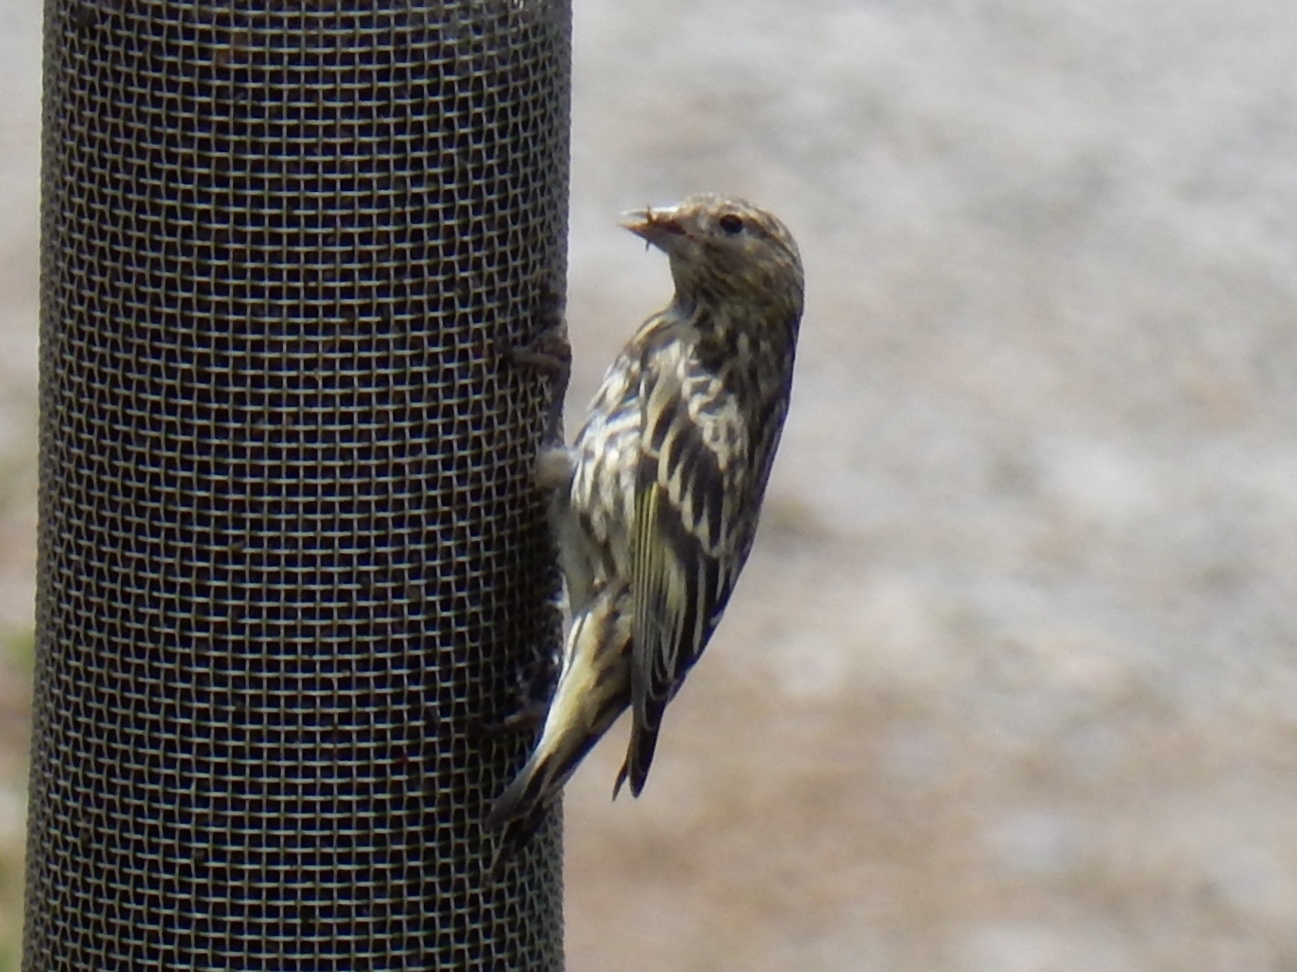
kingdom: Animalia
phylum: Chordata
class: Aves
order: Passeriformes
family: Fringillidae
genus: Spinus
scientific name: Spinus pinus
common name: Pine siskin
